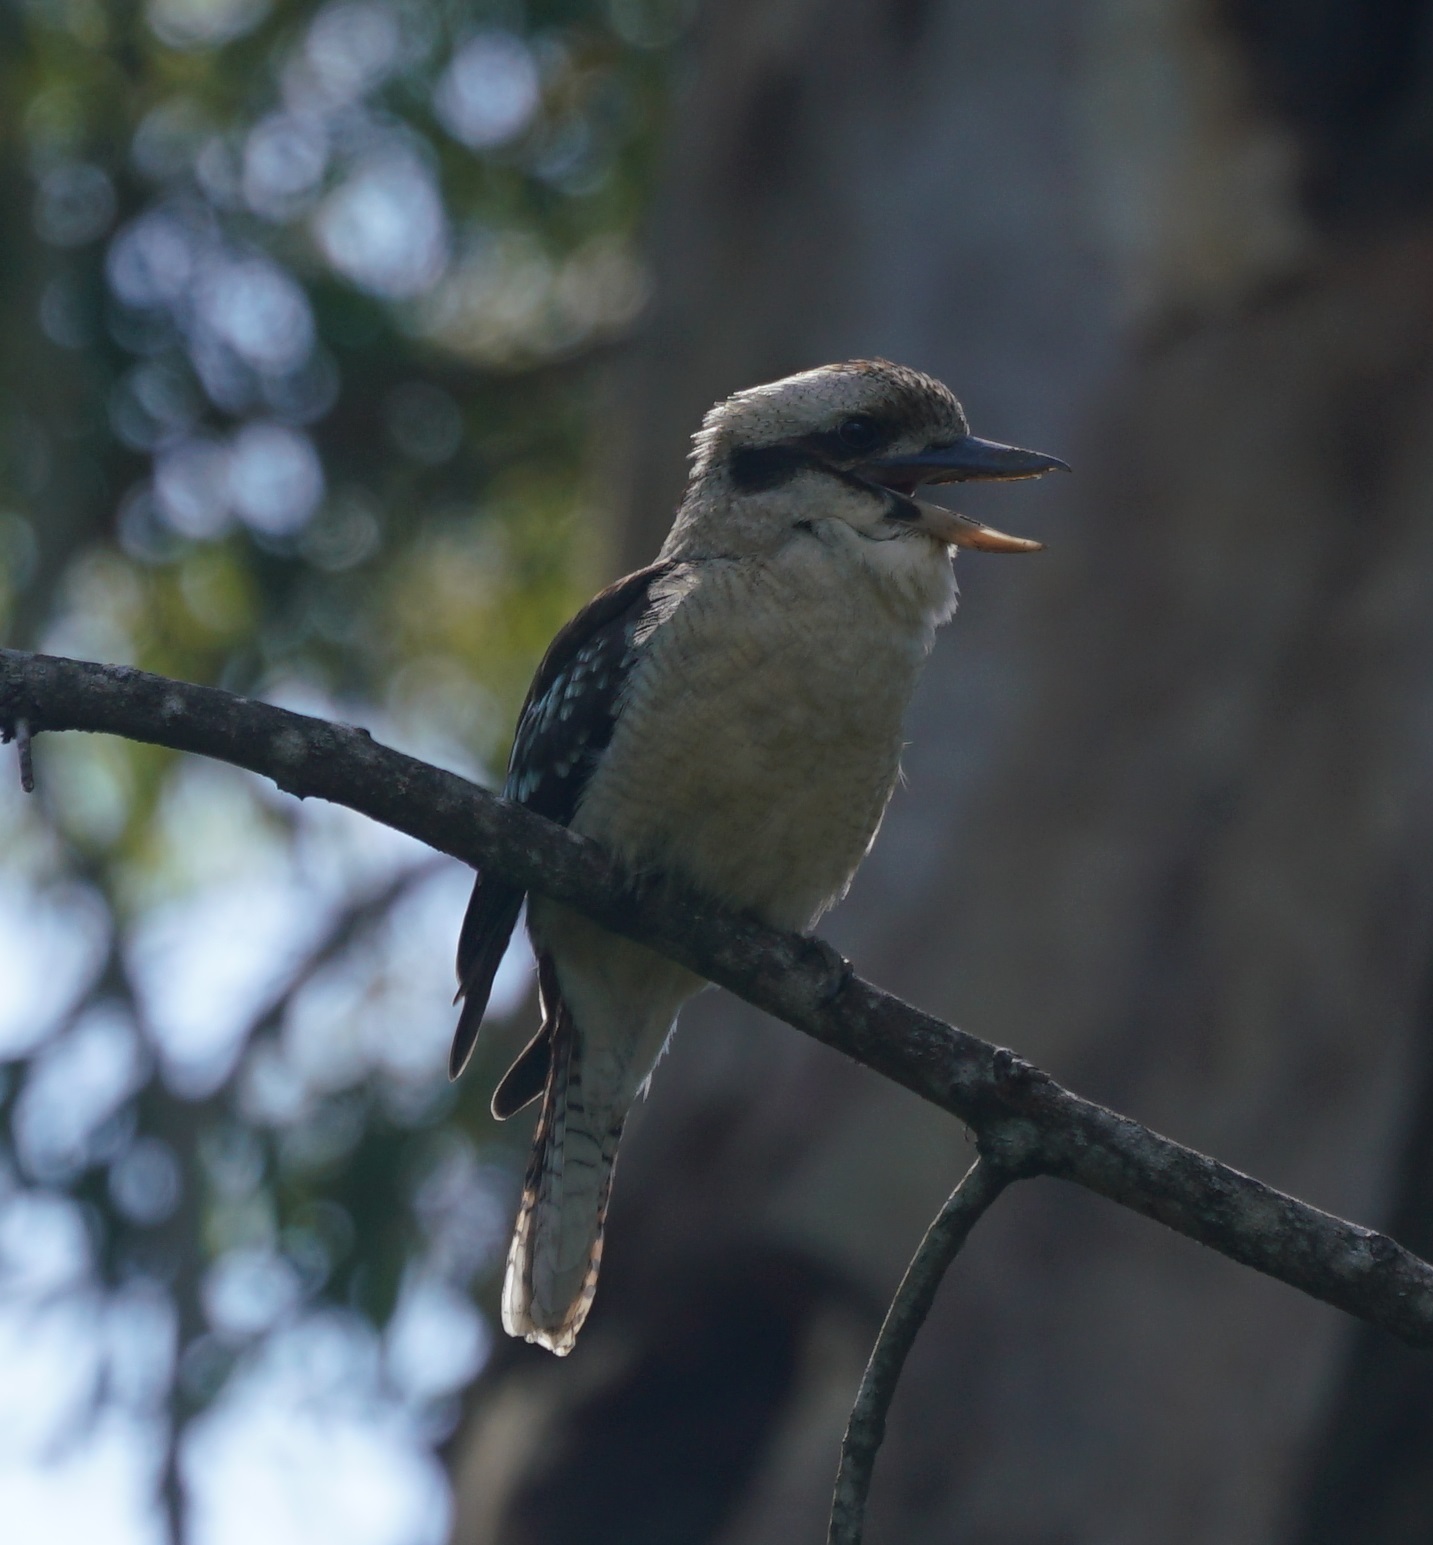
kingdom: Animalia
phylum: Chordata
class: Aves
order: Coraciiformes
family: Alcedinidae
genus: Dacelo
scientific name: Dacelo novaeguineae
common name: Laughing kookaburra
